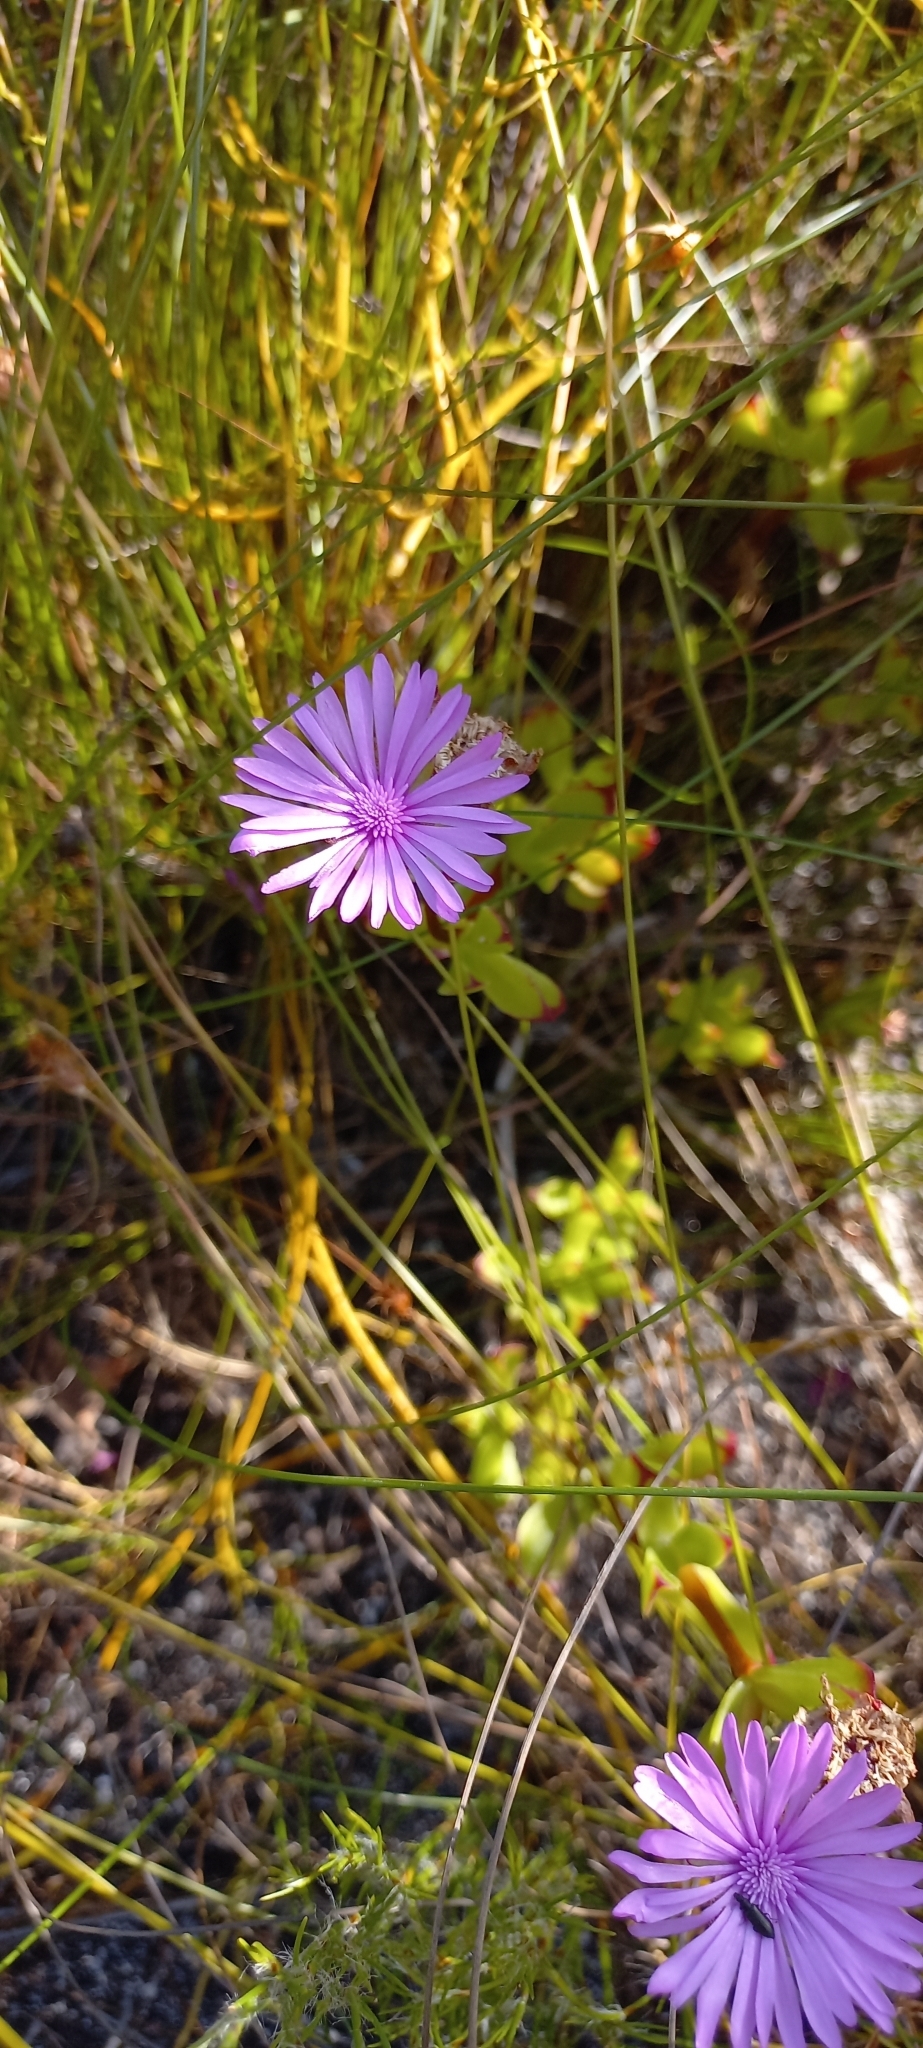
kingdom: Plantae
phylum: Tracheophyta
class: Magnoliopsida
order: Caryophyllales
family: Aizoaceae
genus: Erepsia
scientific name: Erepsia inclaudens
